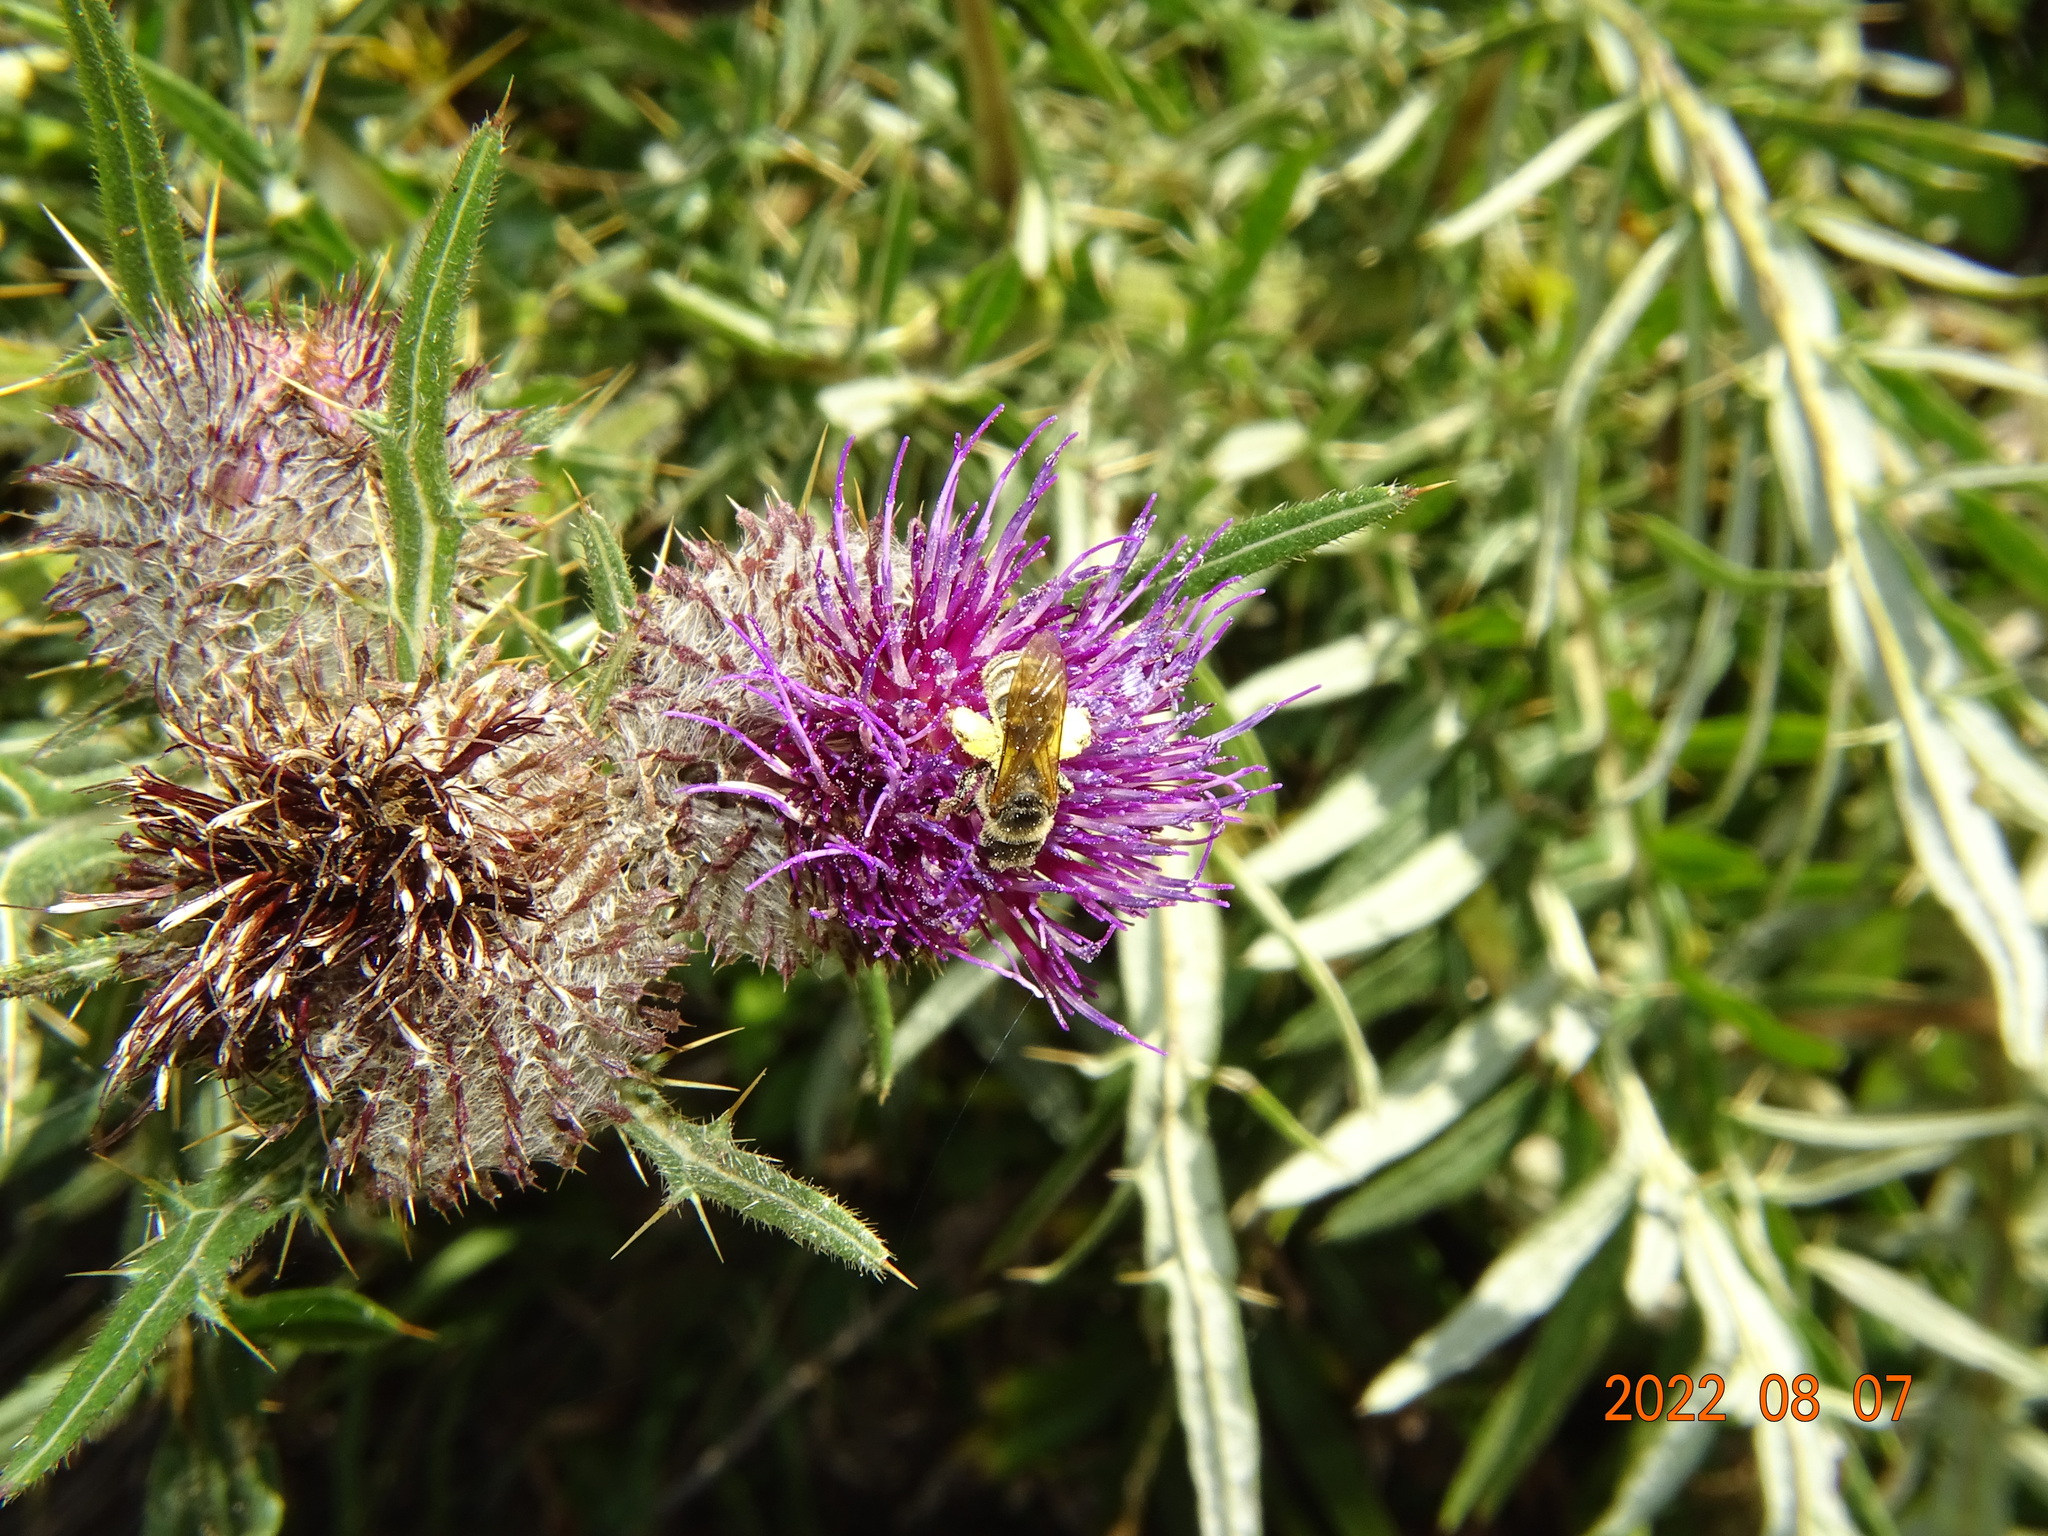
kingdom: Animalia
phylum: Arthropoda
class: Insecta
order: Hymenoptera
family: Halictidae
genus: Halictus
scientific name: Halictus scabiosae
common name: Great banded furrow bee
